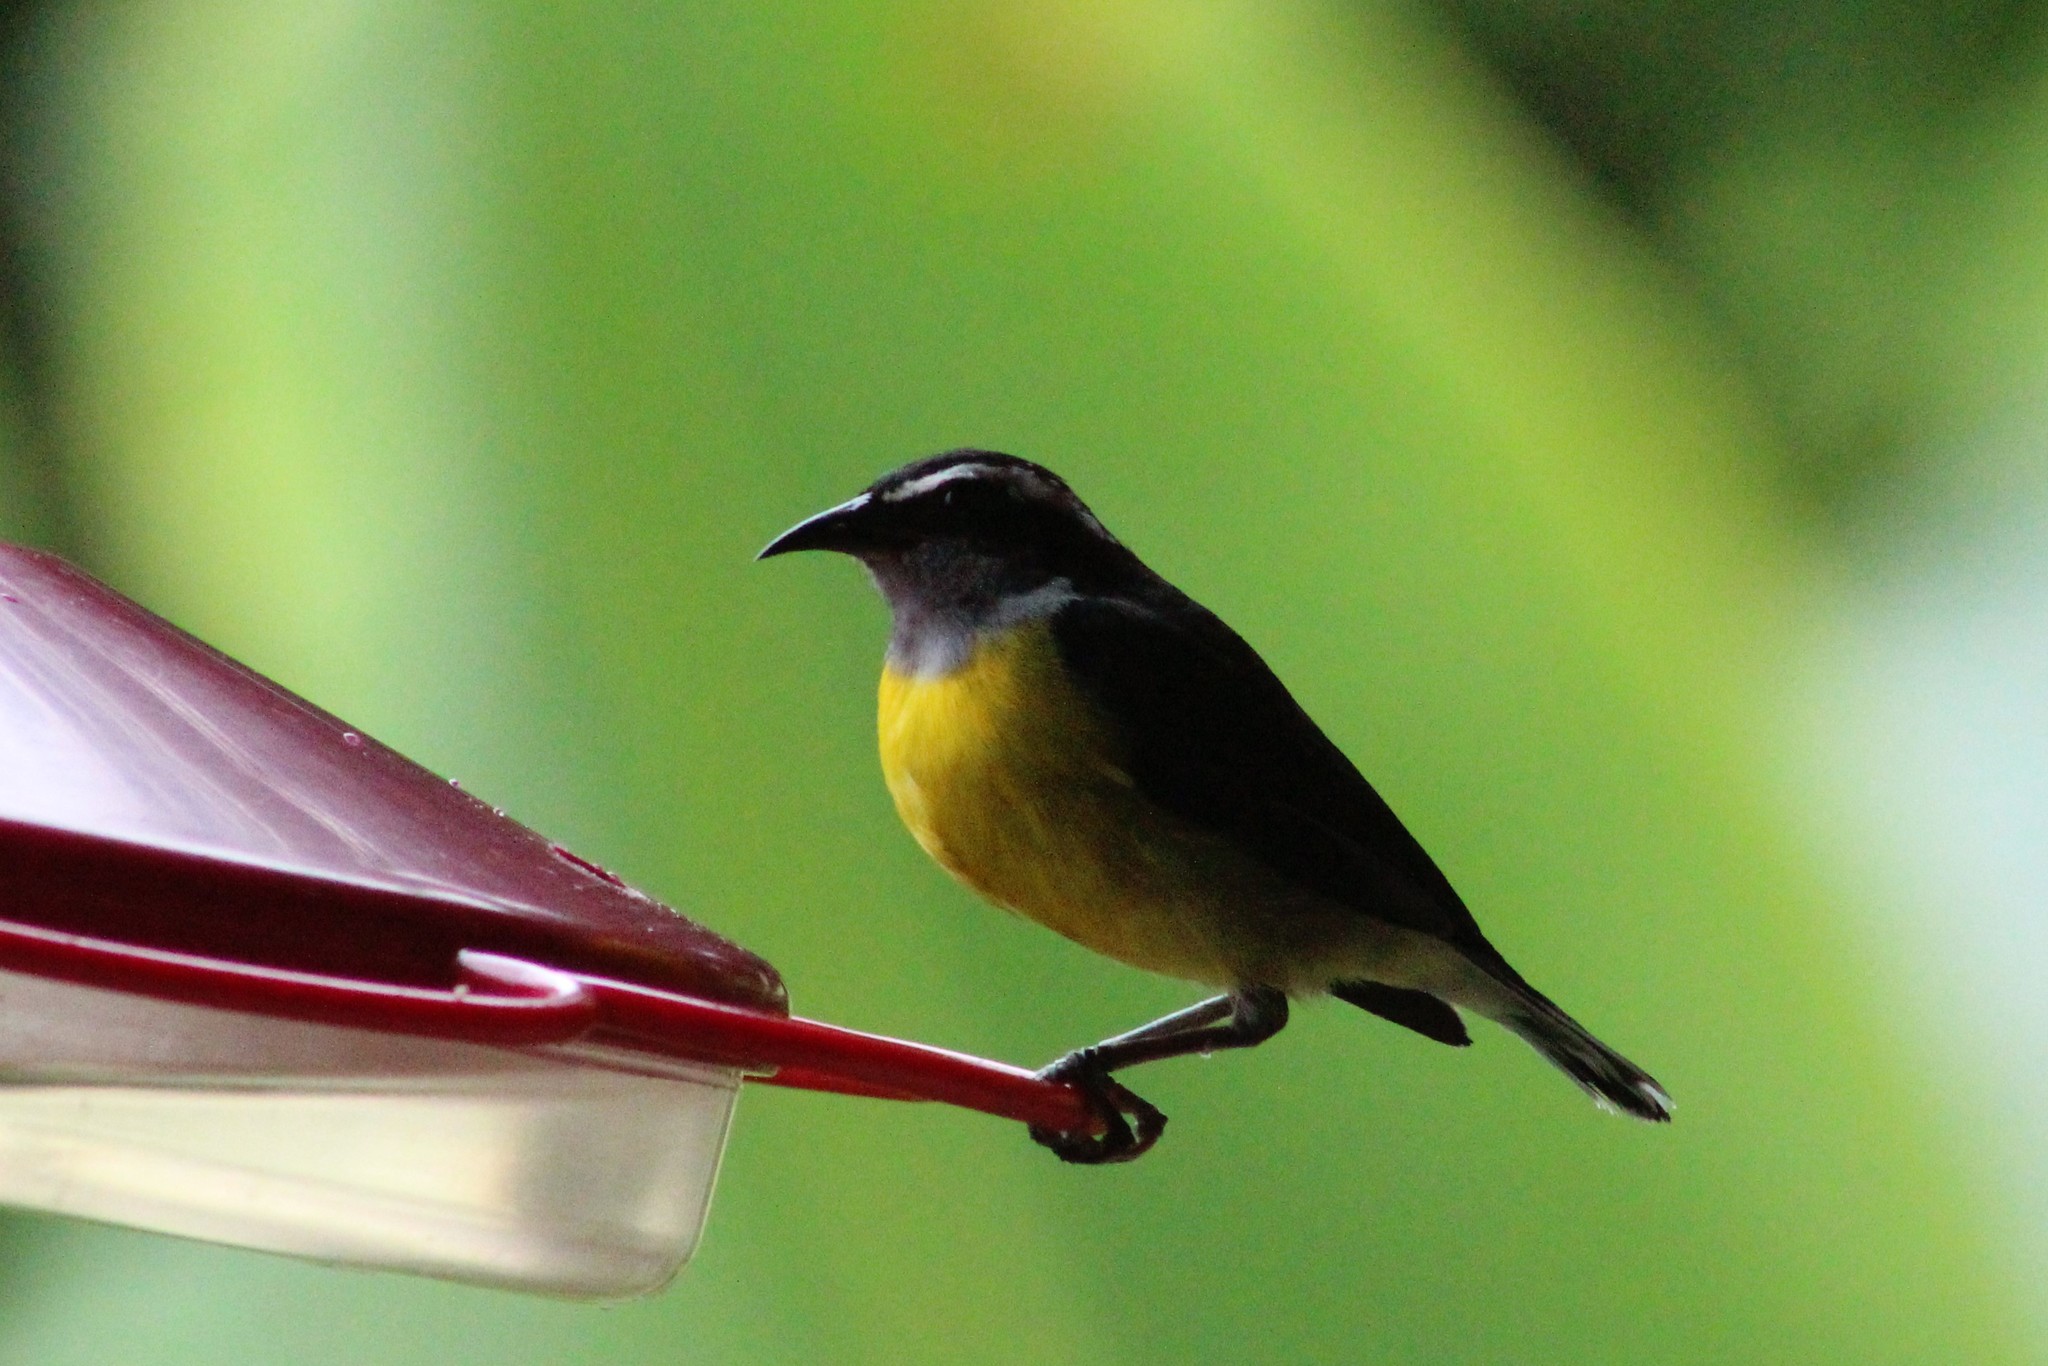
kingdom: Animalia
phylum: Chordata
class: Aves
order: Passeriformes
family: Thraupidae
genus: Coereba
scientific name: Coereba flaveola
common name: Bananaquit
